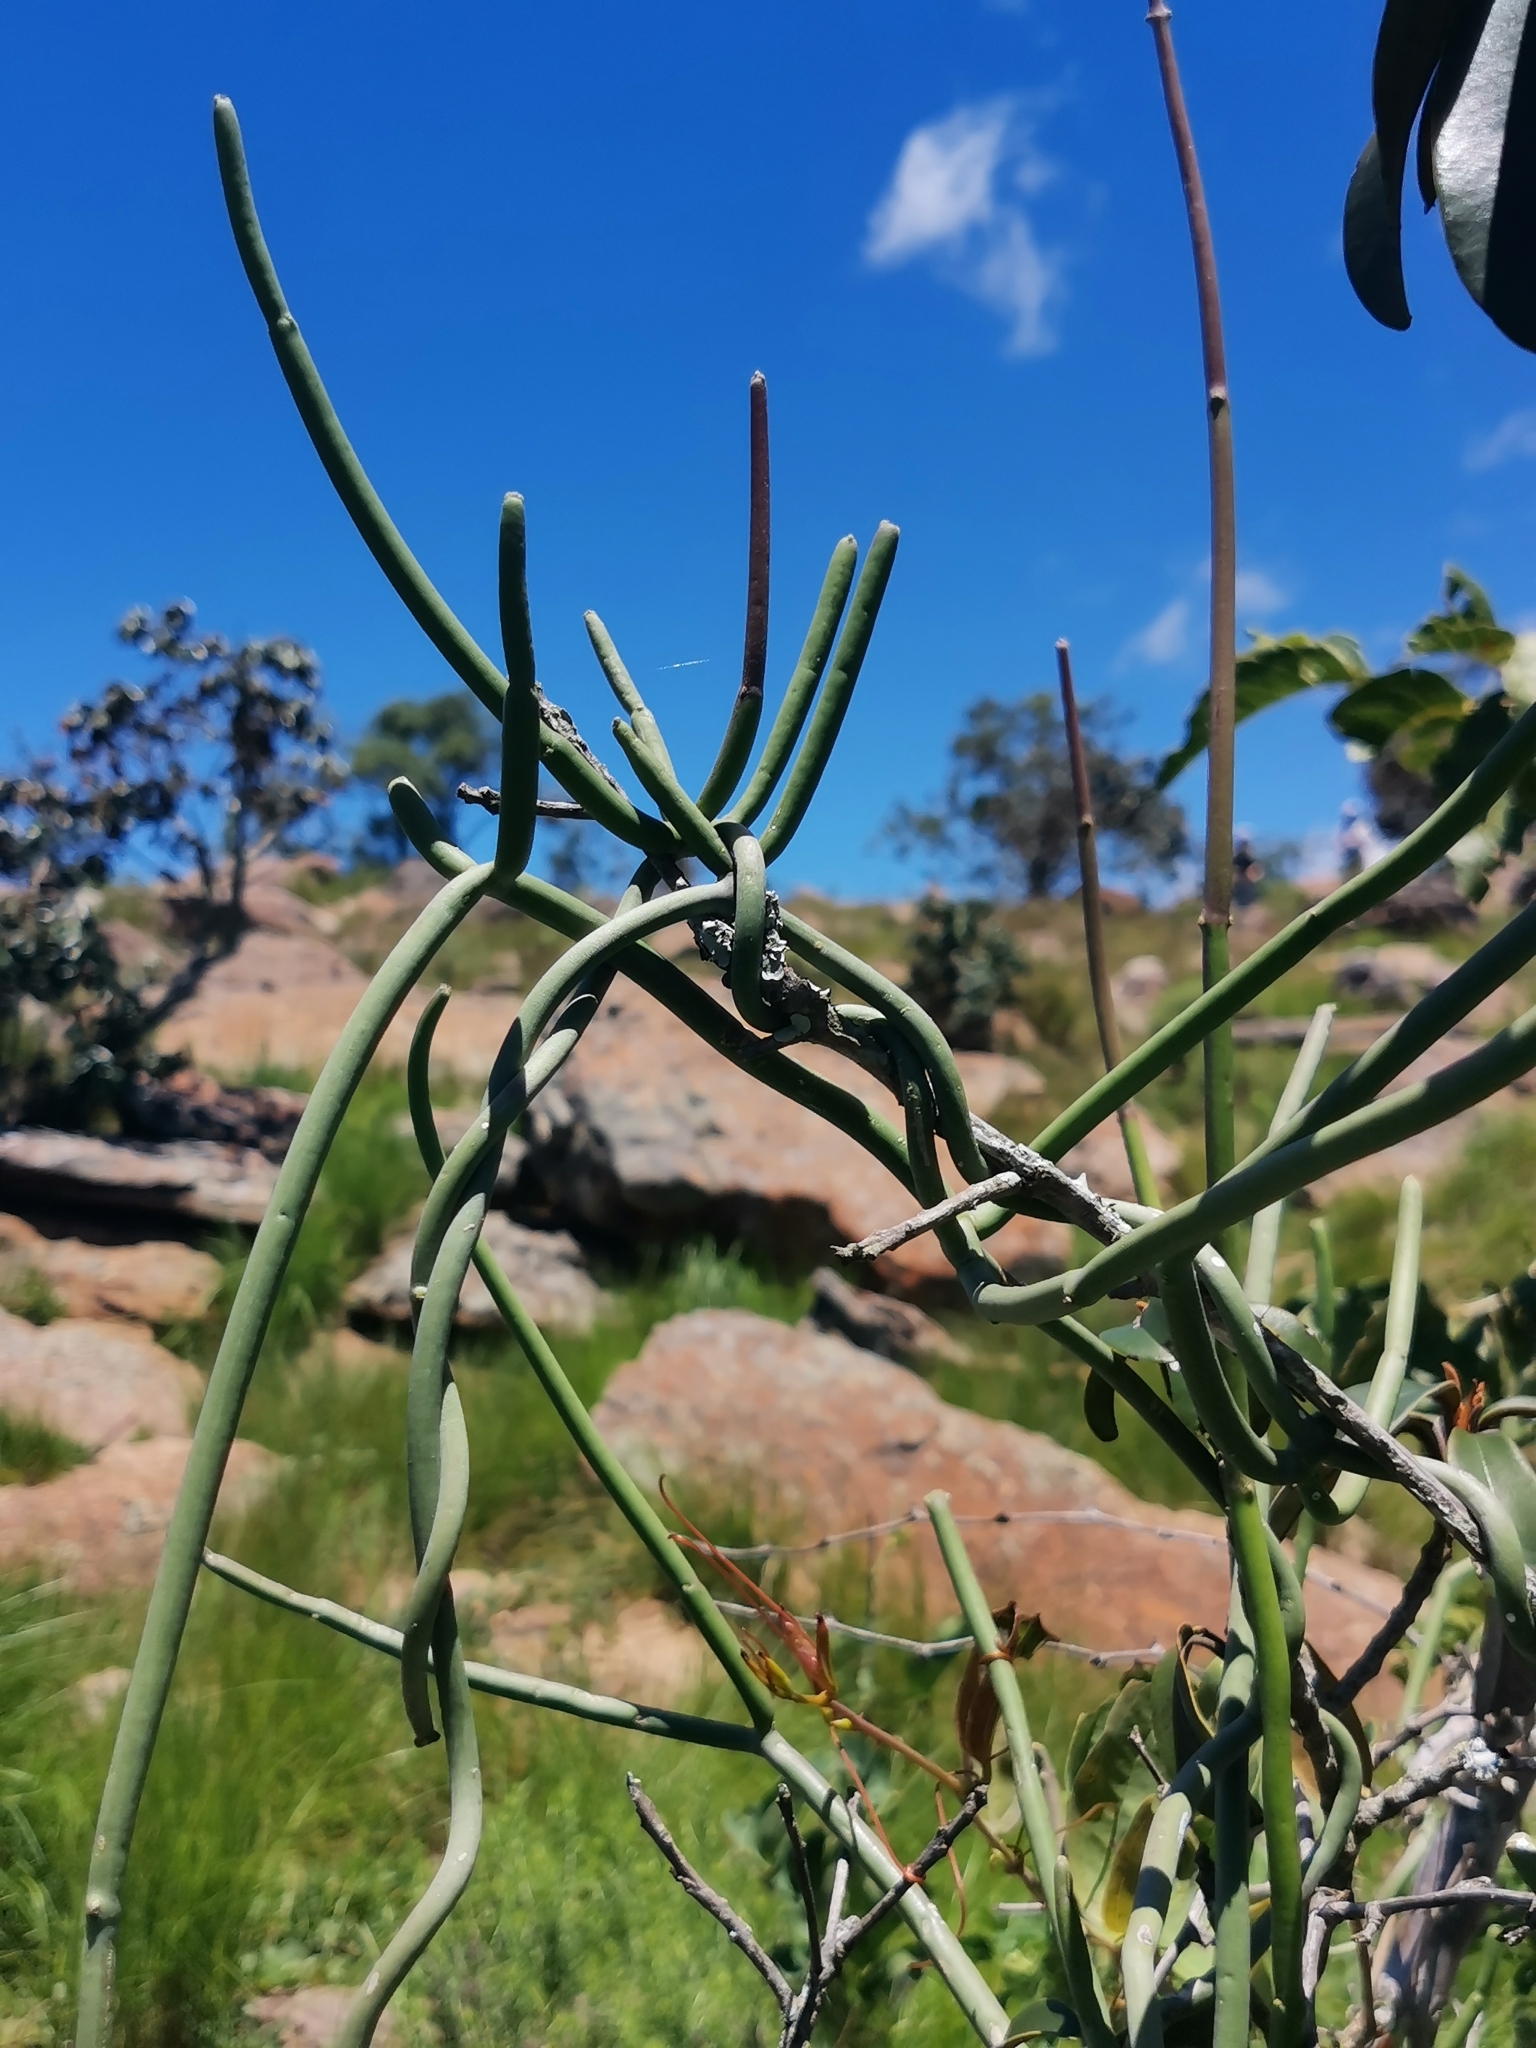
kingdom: Plantae
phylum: Tracheophyta
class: Magnoliopsida
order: Gentianales
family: Apocynaceae
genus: Cynanchum
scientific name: Cynanchum viminale
